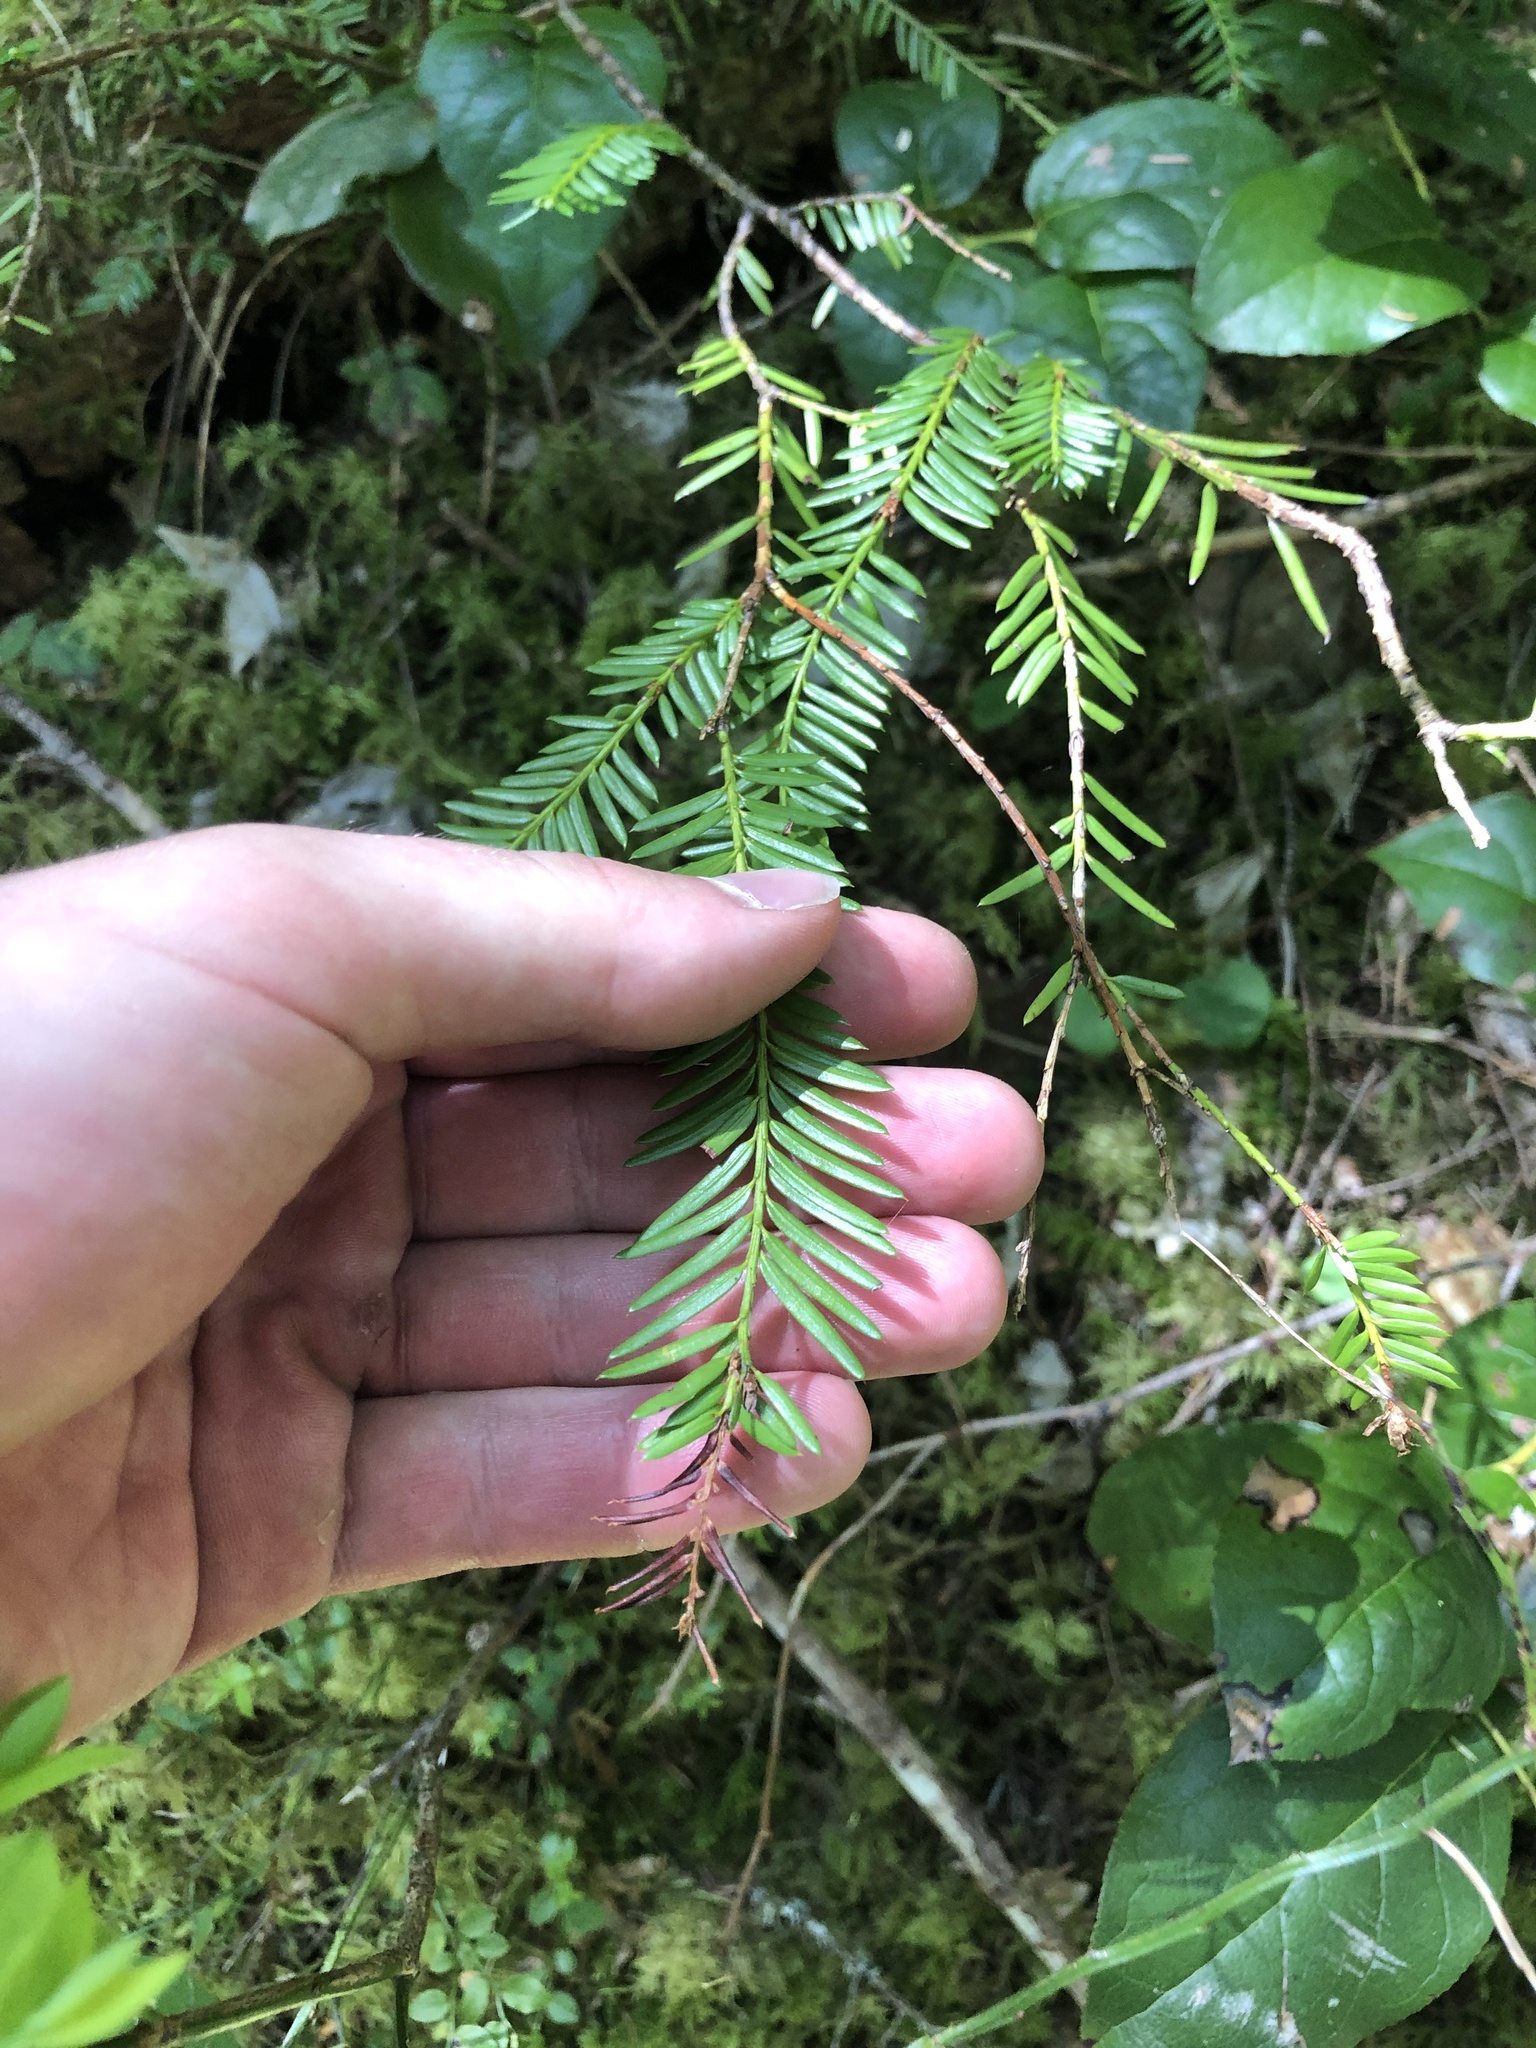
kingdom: Plantae
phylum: Tracheophyta
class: Pinopsida
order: Pinales
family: Taxaceae
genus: Taxus
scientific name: Taxus brevifolia
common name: Pacific yew
